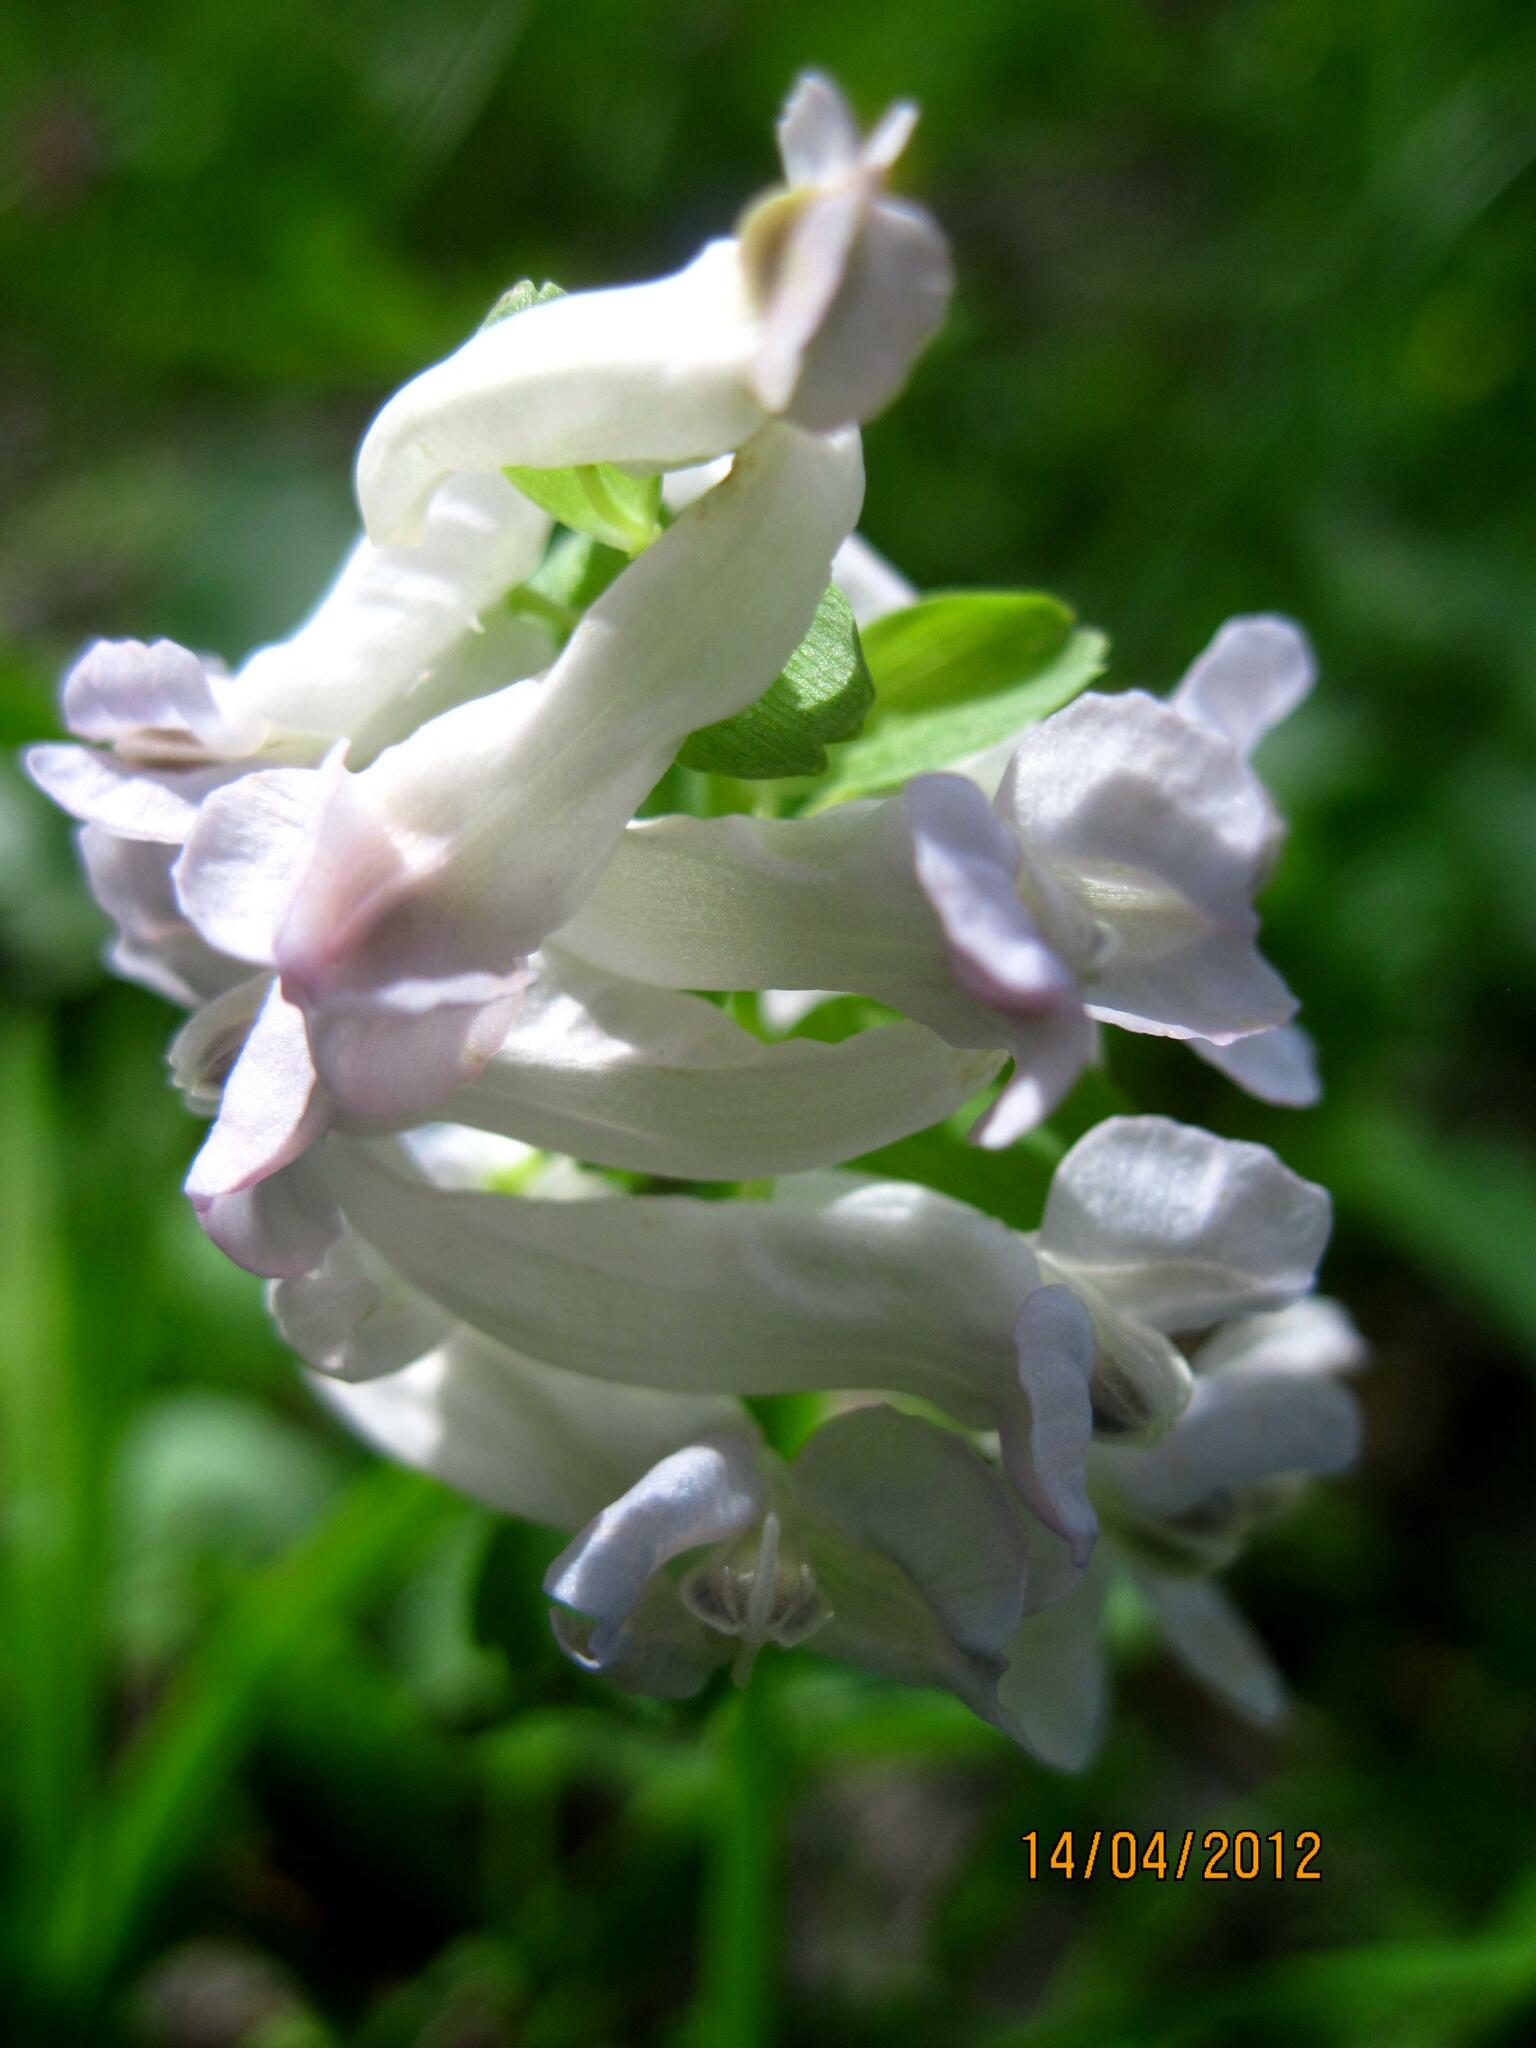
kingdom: Plantae
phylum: Tracheophyta
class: Magnoliopsida
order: Ranunculales
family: Papaveraceae
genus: Corydalis
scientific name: Corydalis solida
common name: Bird-in-a-bush
